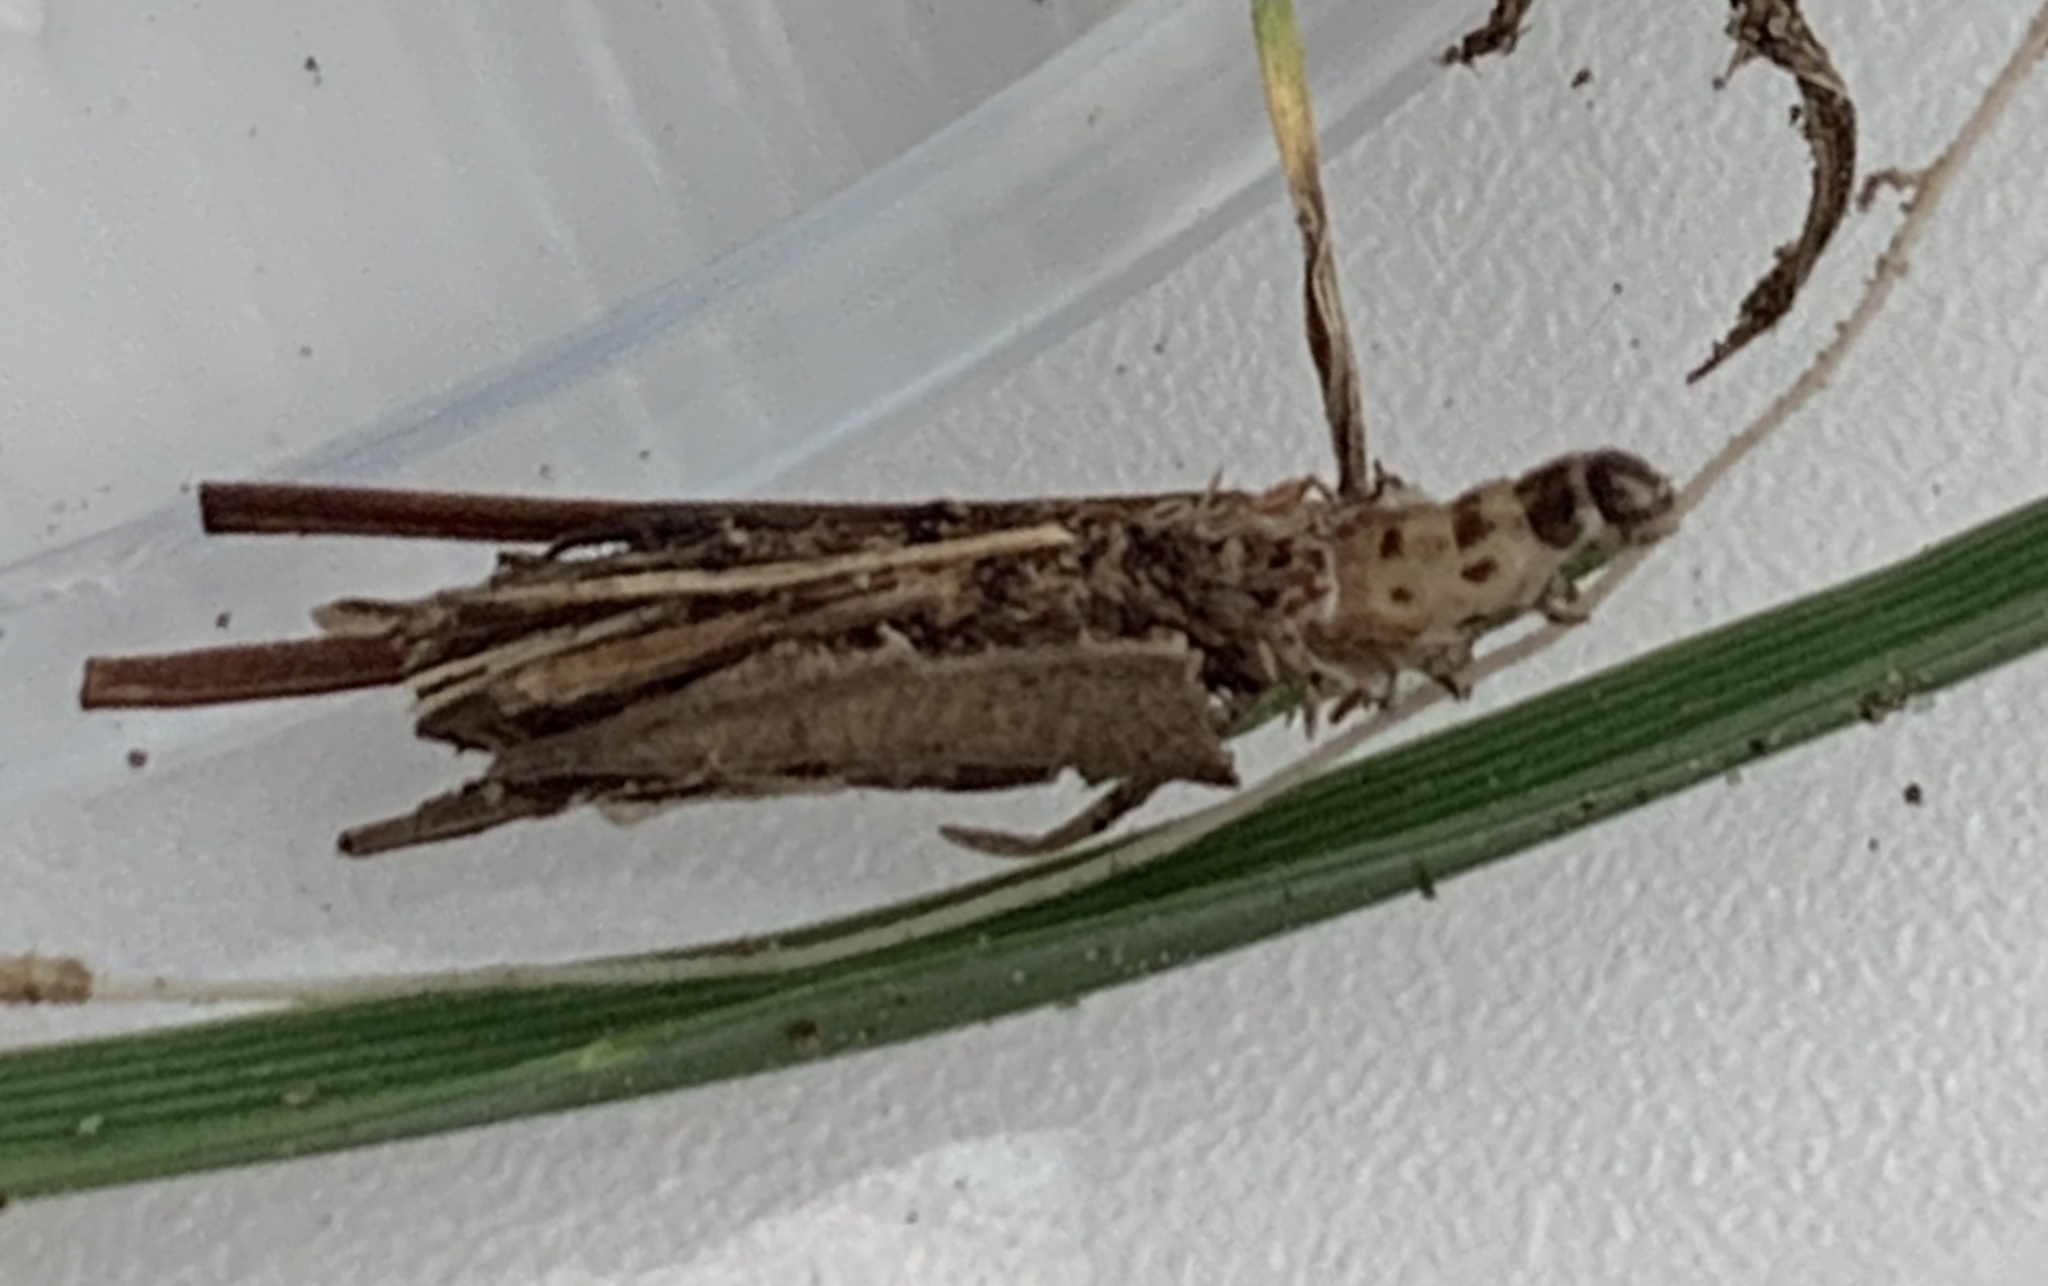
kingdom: Animalia
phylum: Arthropoda
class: Insecta
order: Lepidoptera
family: Psychidae
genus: Psyche
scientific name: Psyche casta
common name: Common sweep
